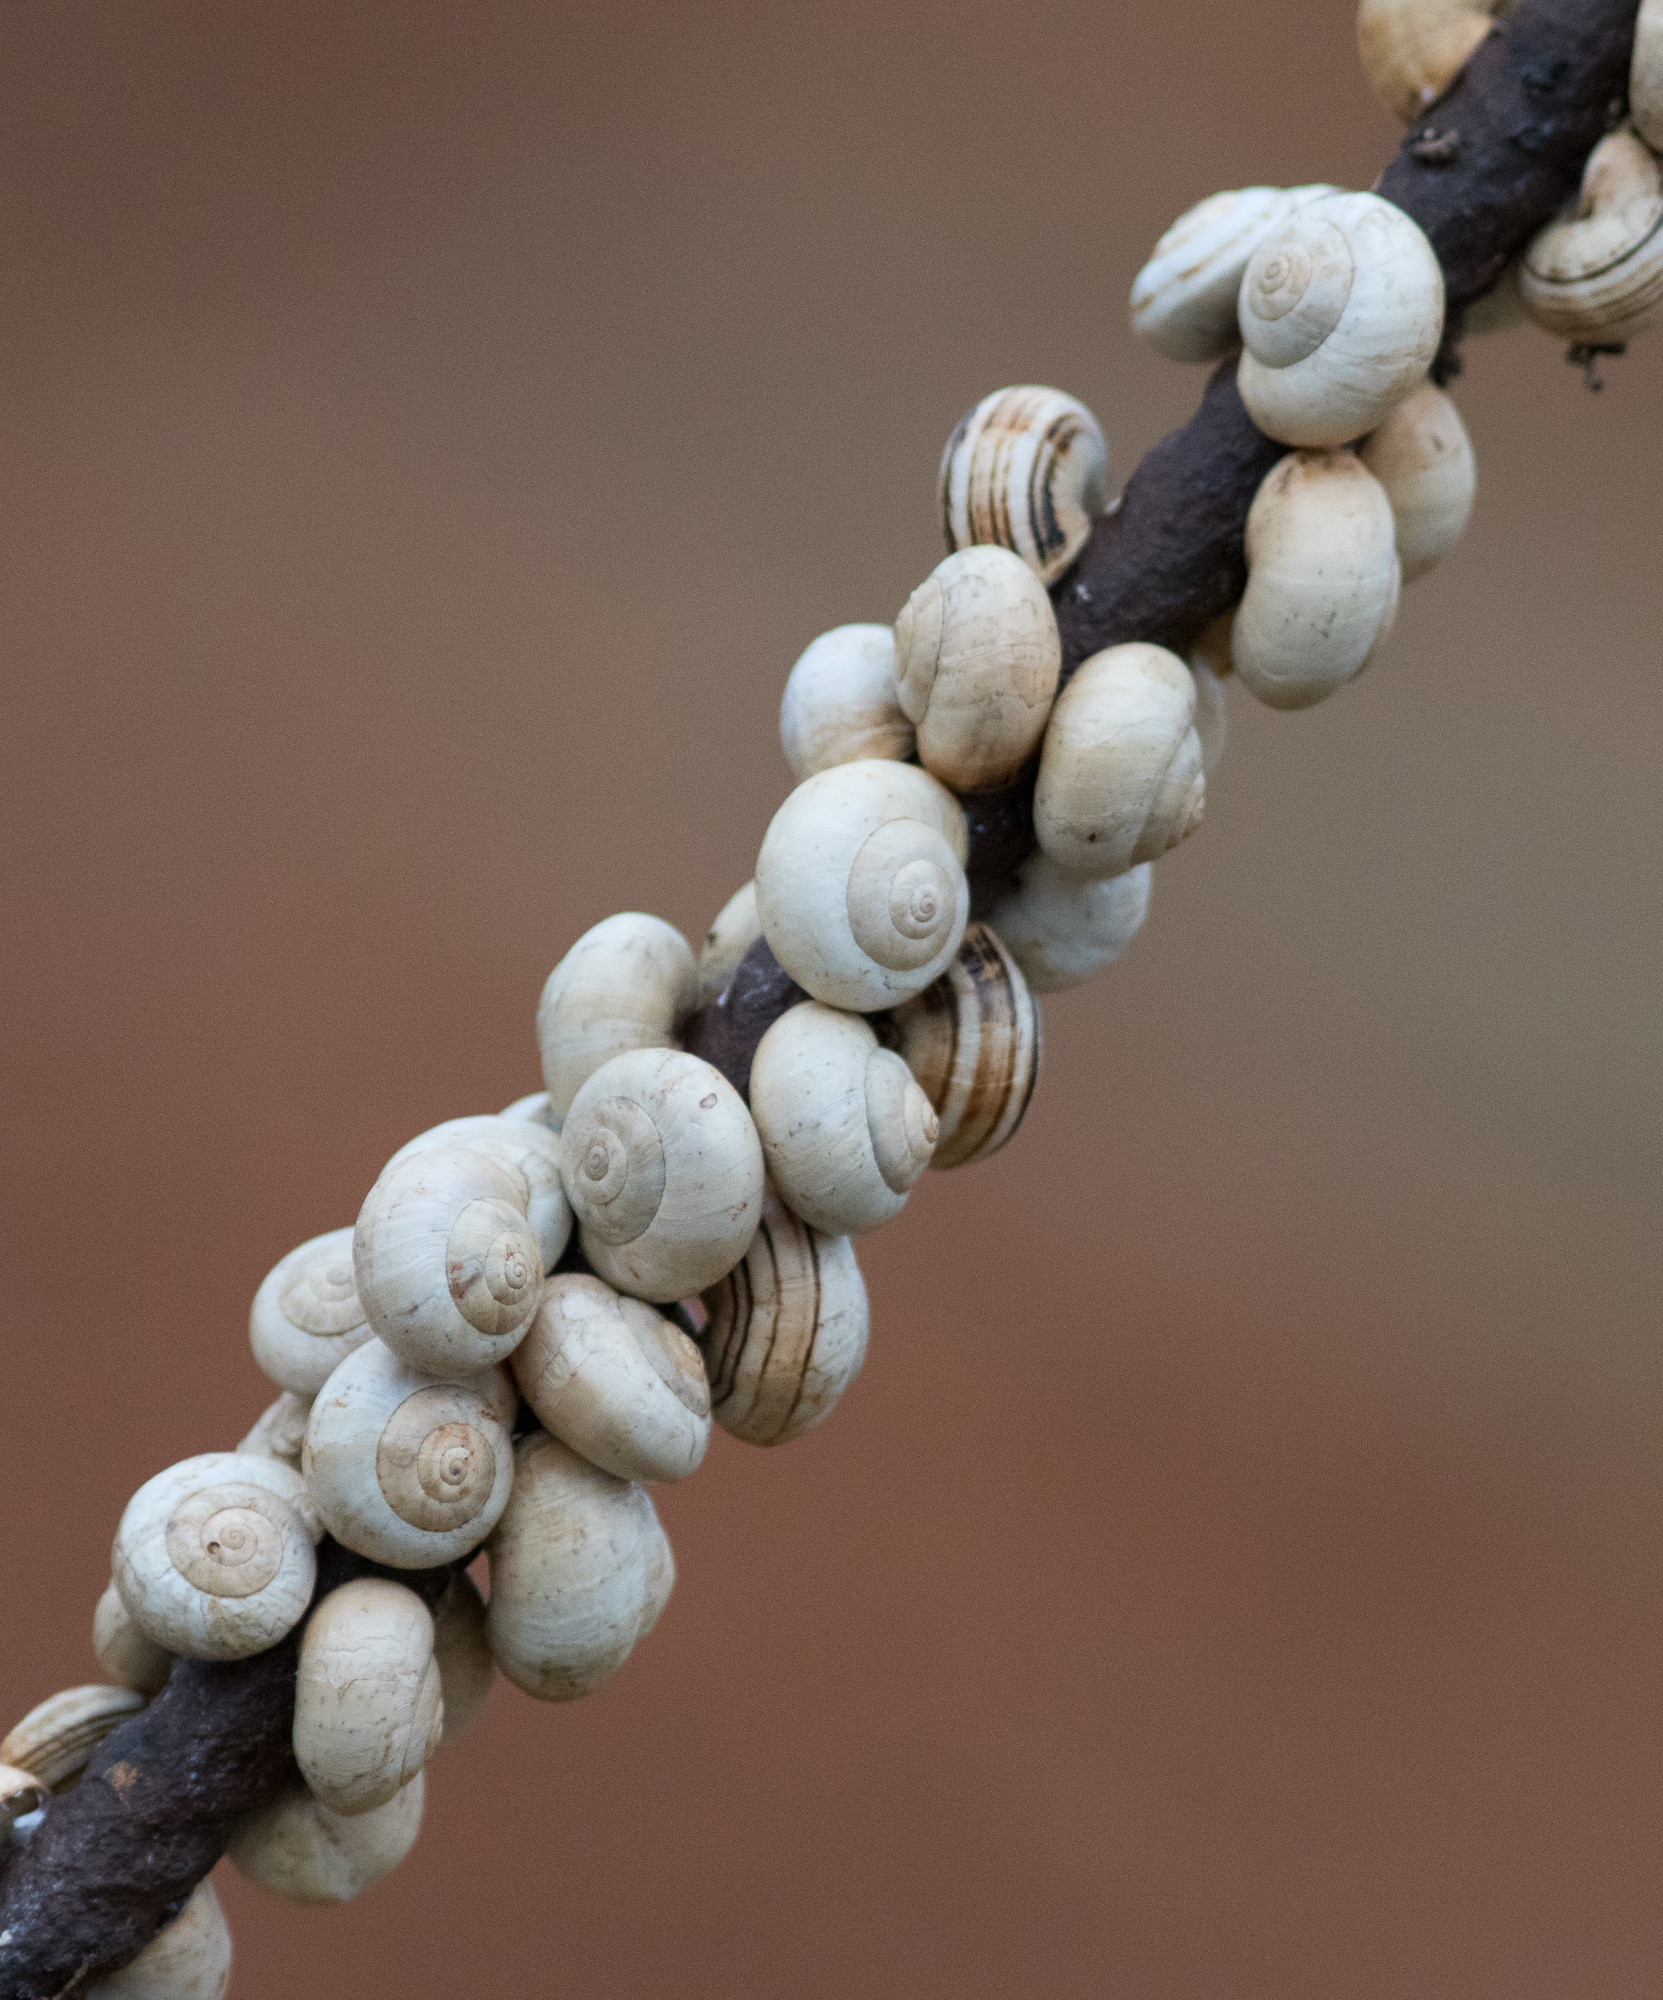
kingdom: Animalia
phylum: Mollusca
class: Gastropoda
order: Stylommatophora
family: Helicidae
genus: Theba
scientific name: Theba pisana
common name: White snail
